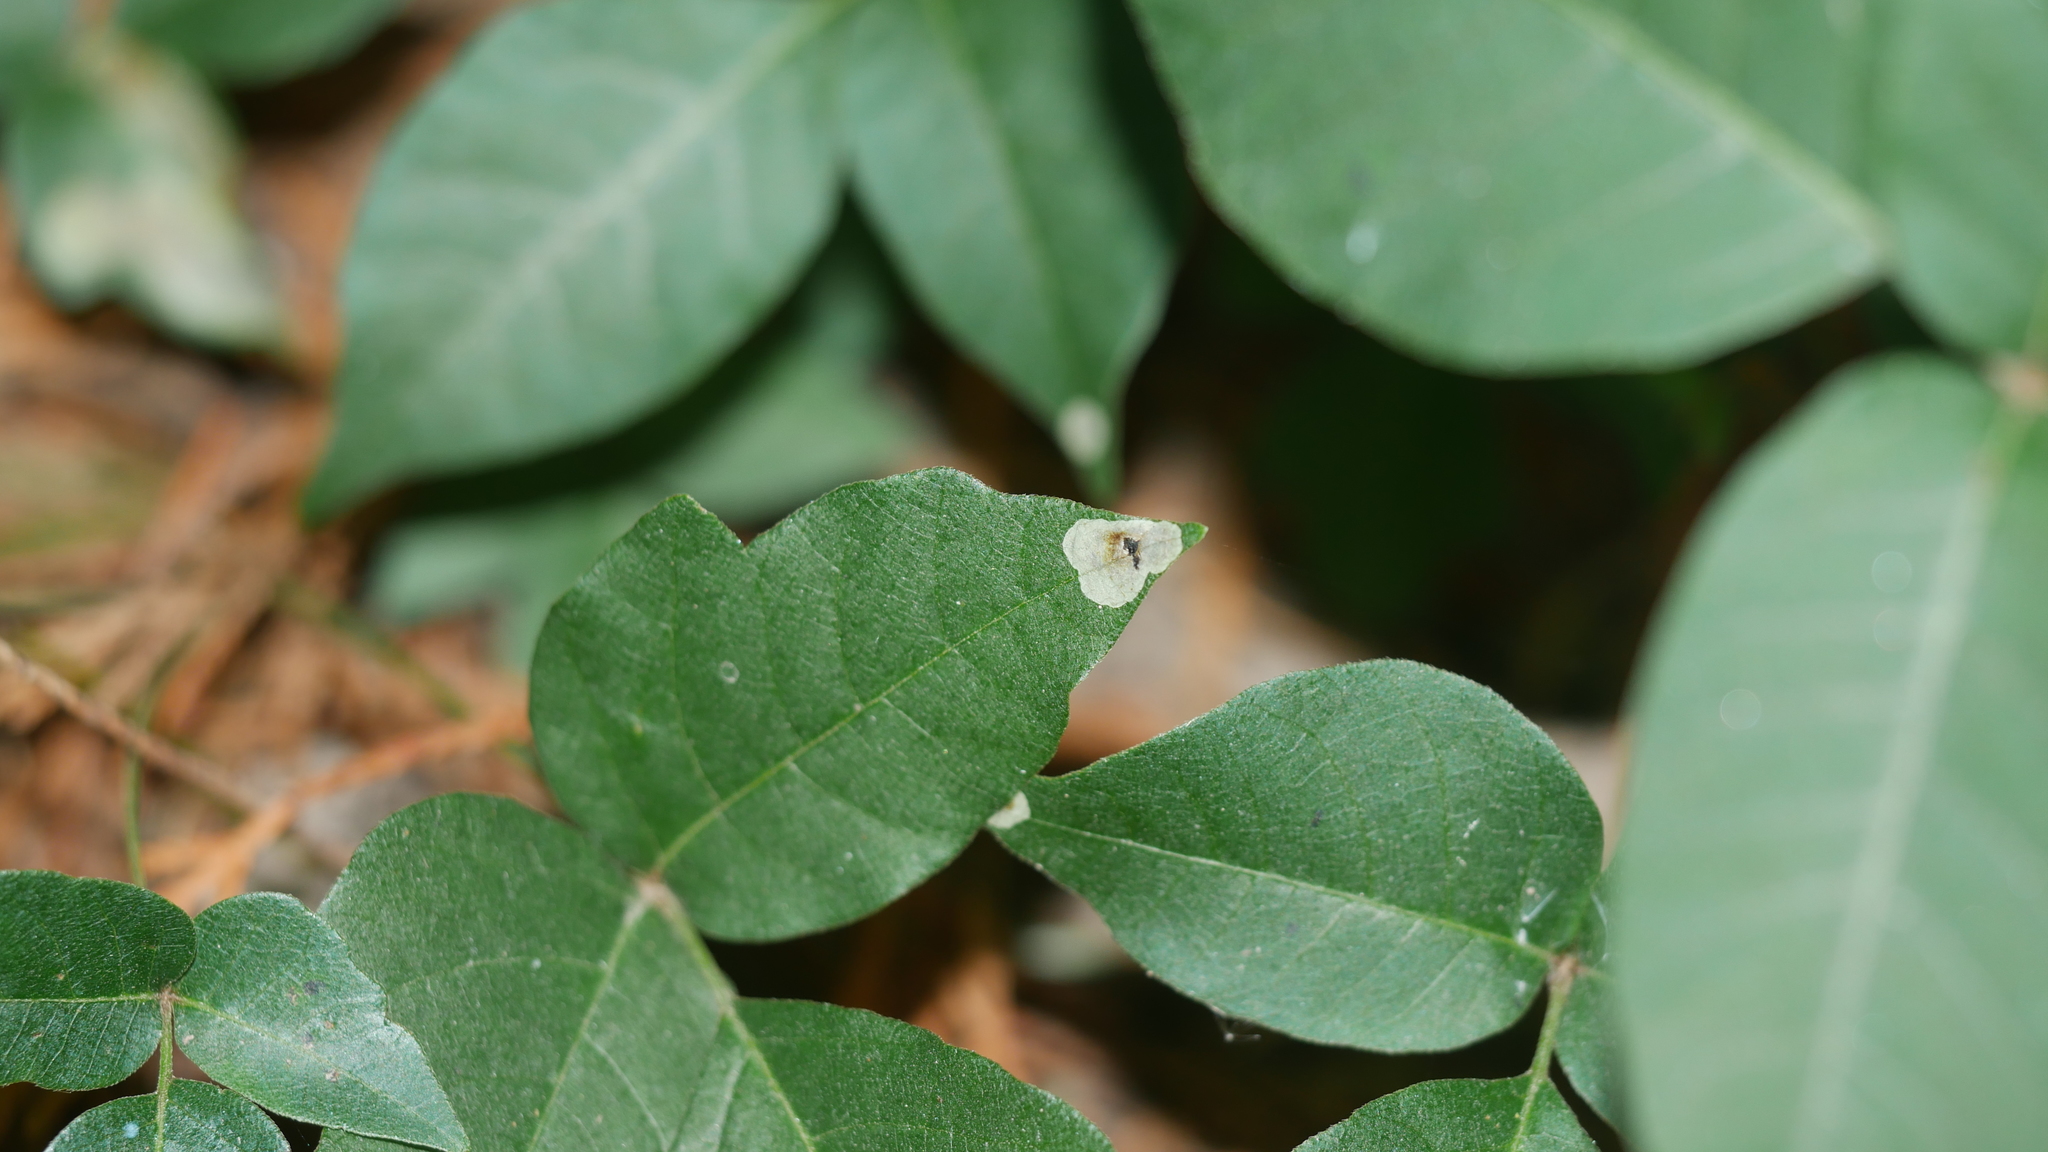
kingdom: Animalia
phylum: Arthropoda
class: Insecta
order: Lepidoptera
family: Gracillariidae
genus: Cameraria
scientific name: Cameraria guttifinitella
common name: Poison ivy leaf-miner moth
